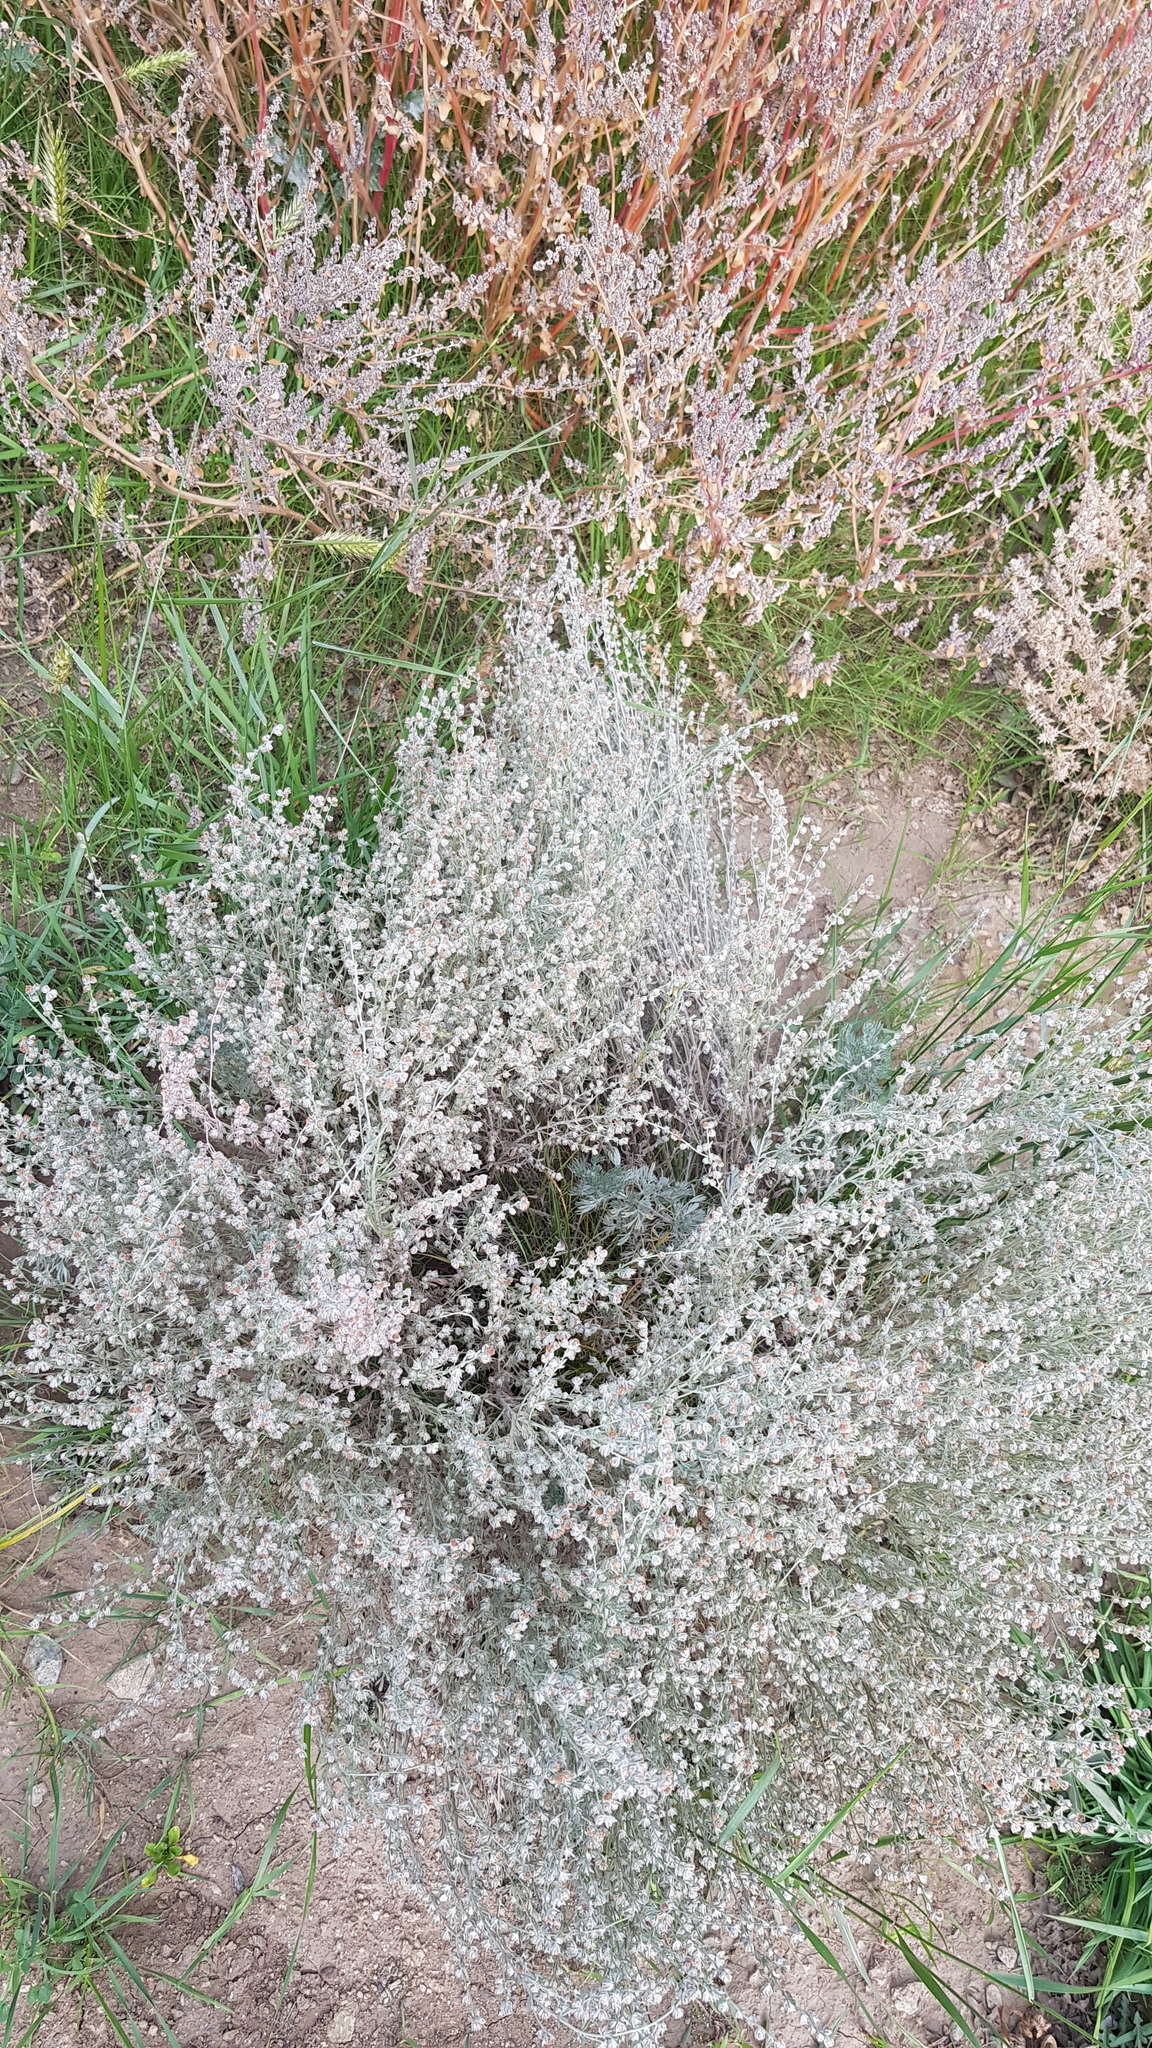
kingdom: Plantae
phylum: Tracheophyta
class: Magnoliopsida
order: Asterales
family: Asteraceae
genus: Artemisia
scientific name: Artemisia frigida
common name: Prairie sagewort
